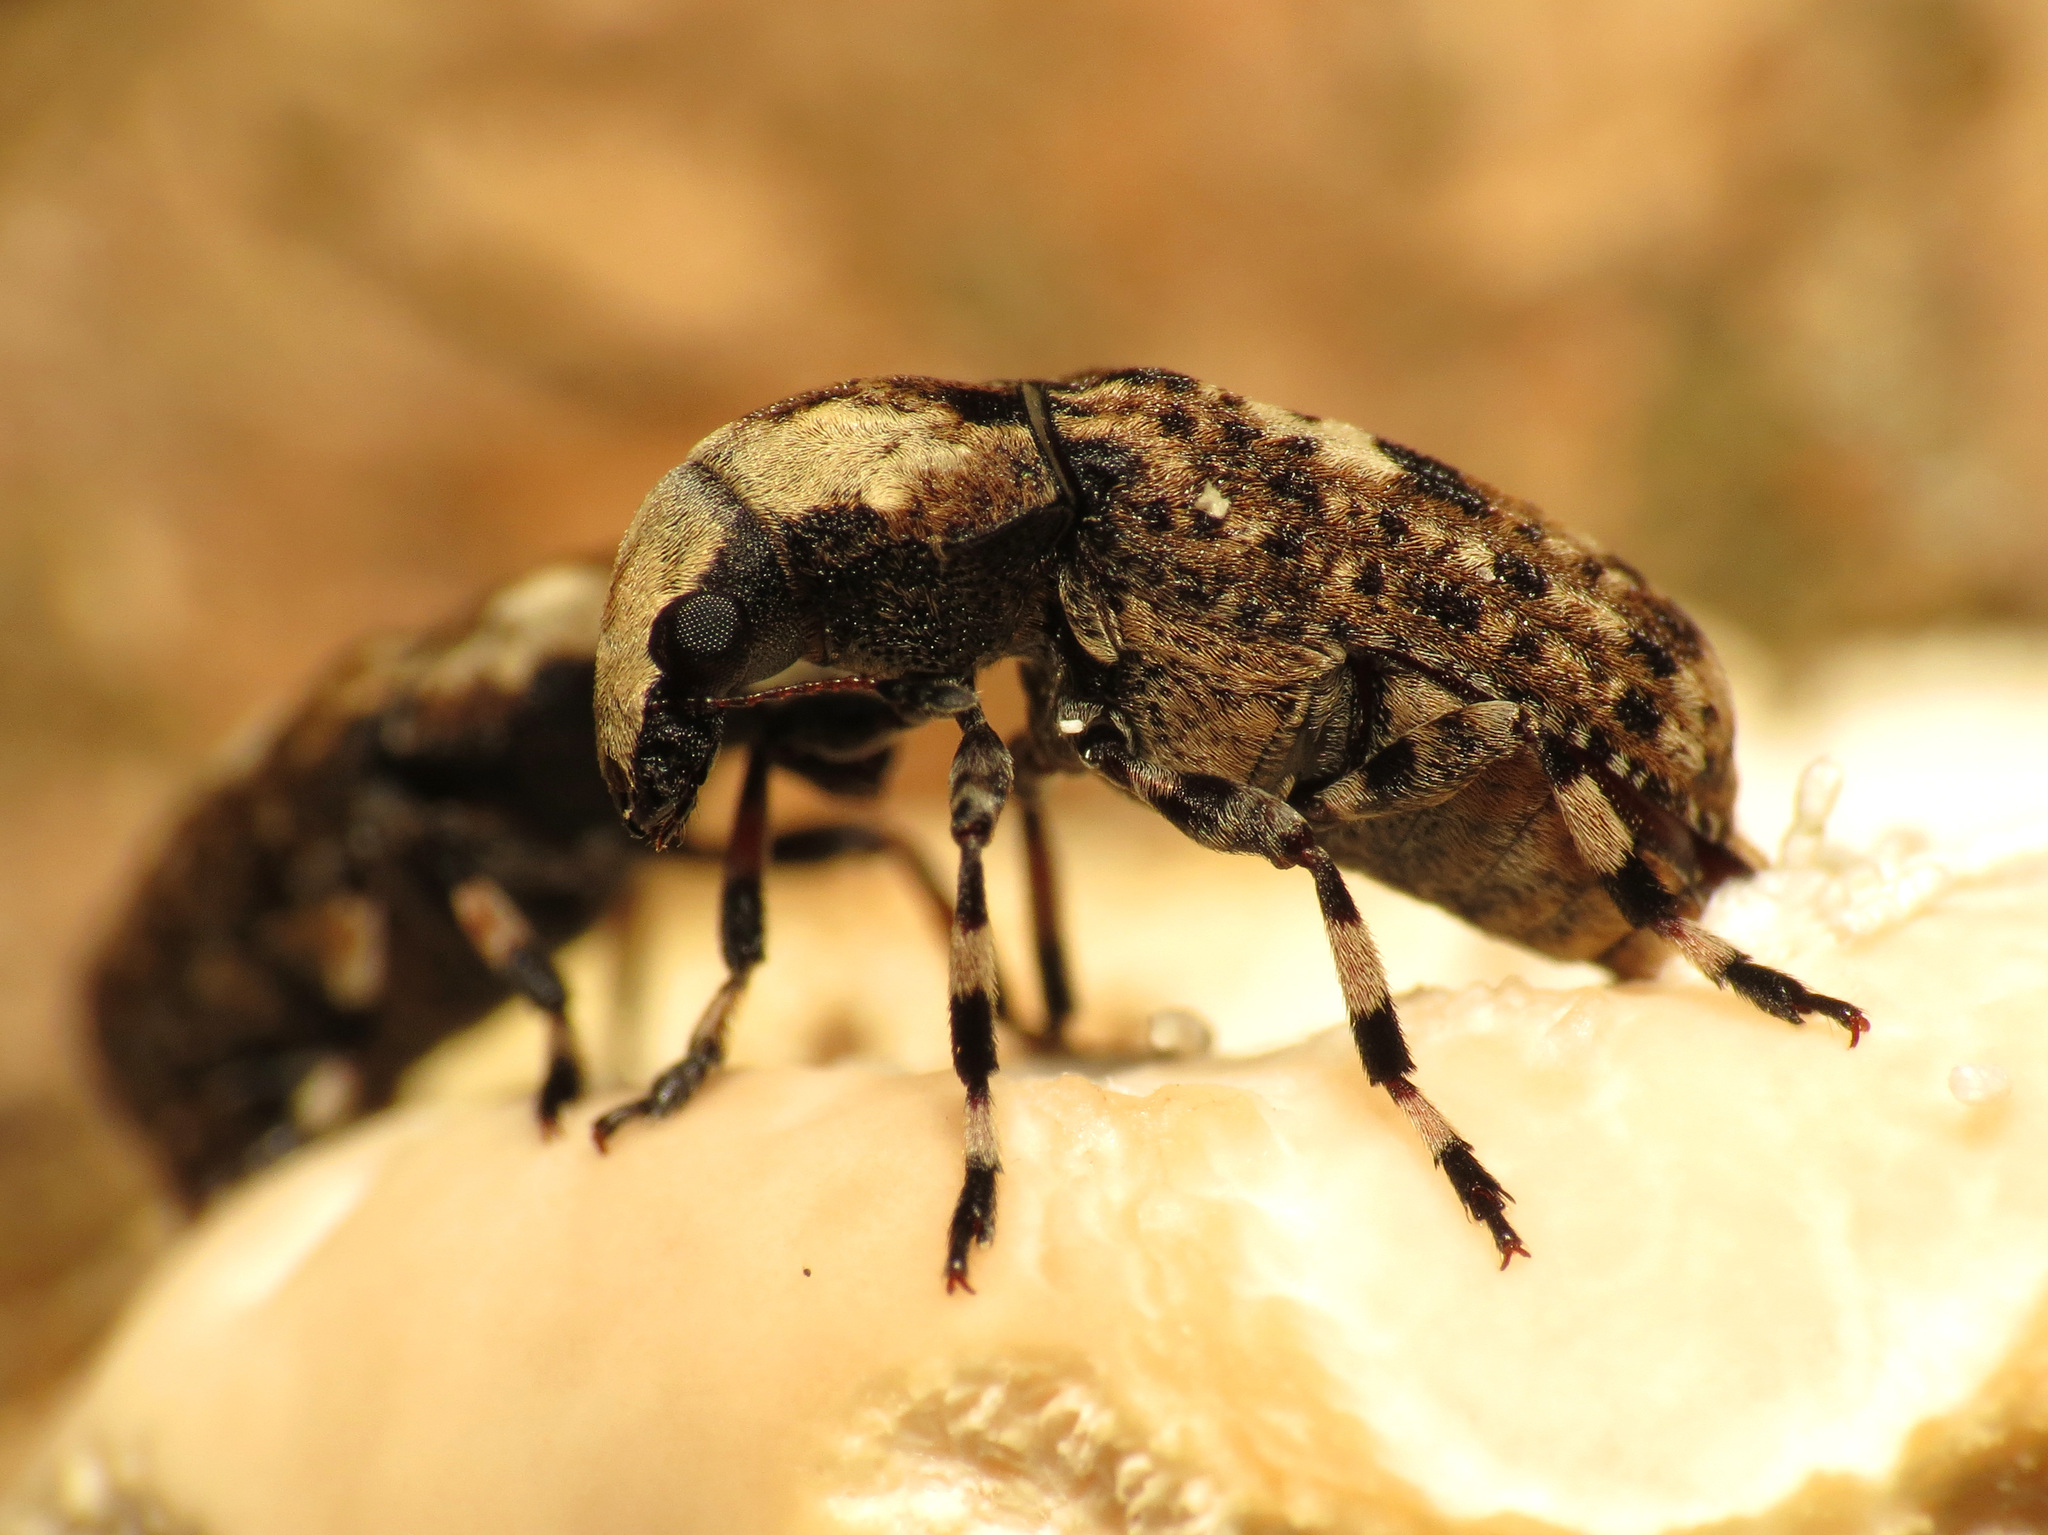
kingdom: Animalia
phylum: Arthropoda
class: Insecta
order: Coleoptera
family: Anthribidae
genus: Euparius
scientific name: Euparius marmoreus
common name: Marbled fungus weevil
